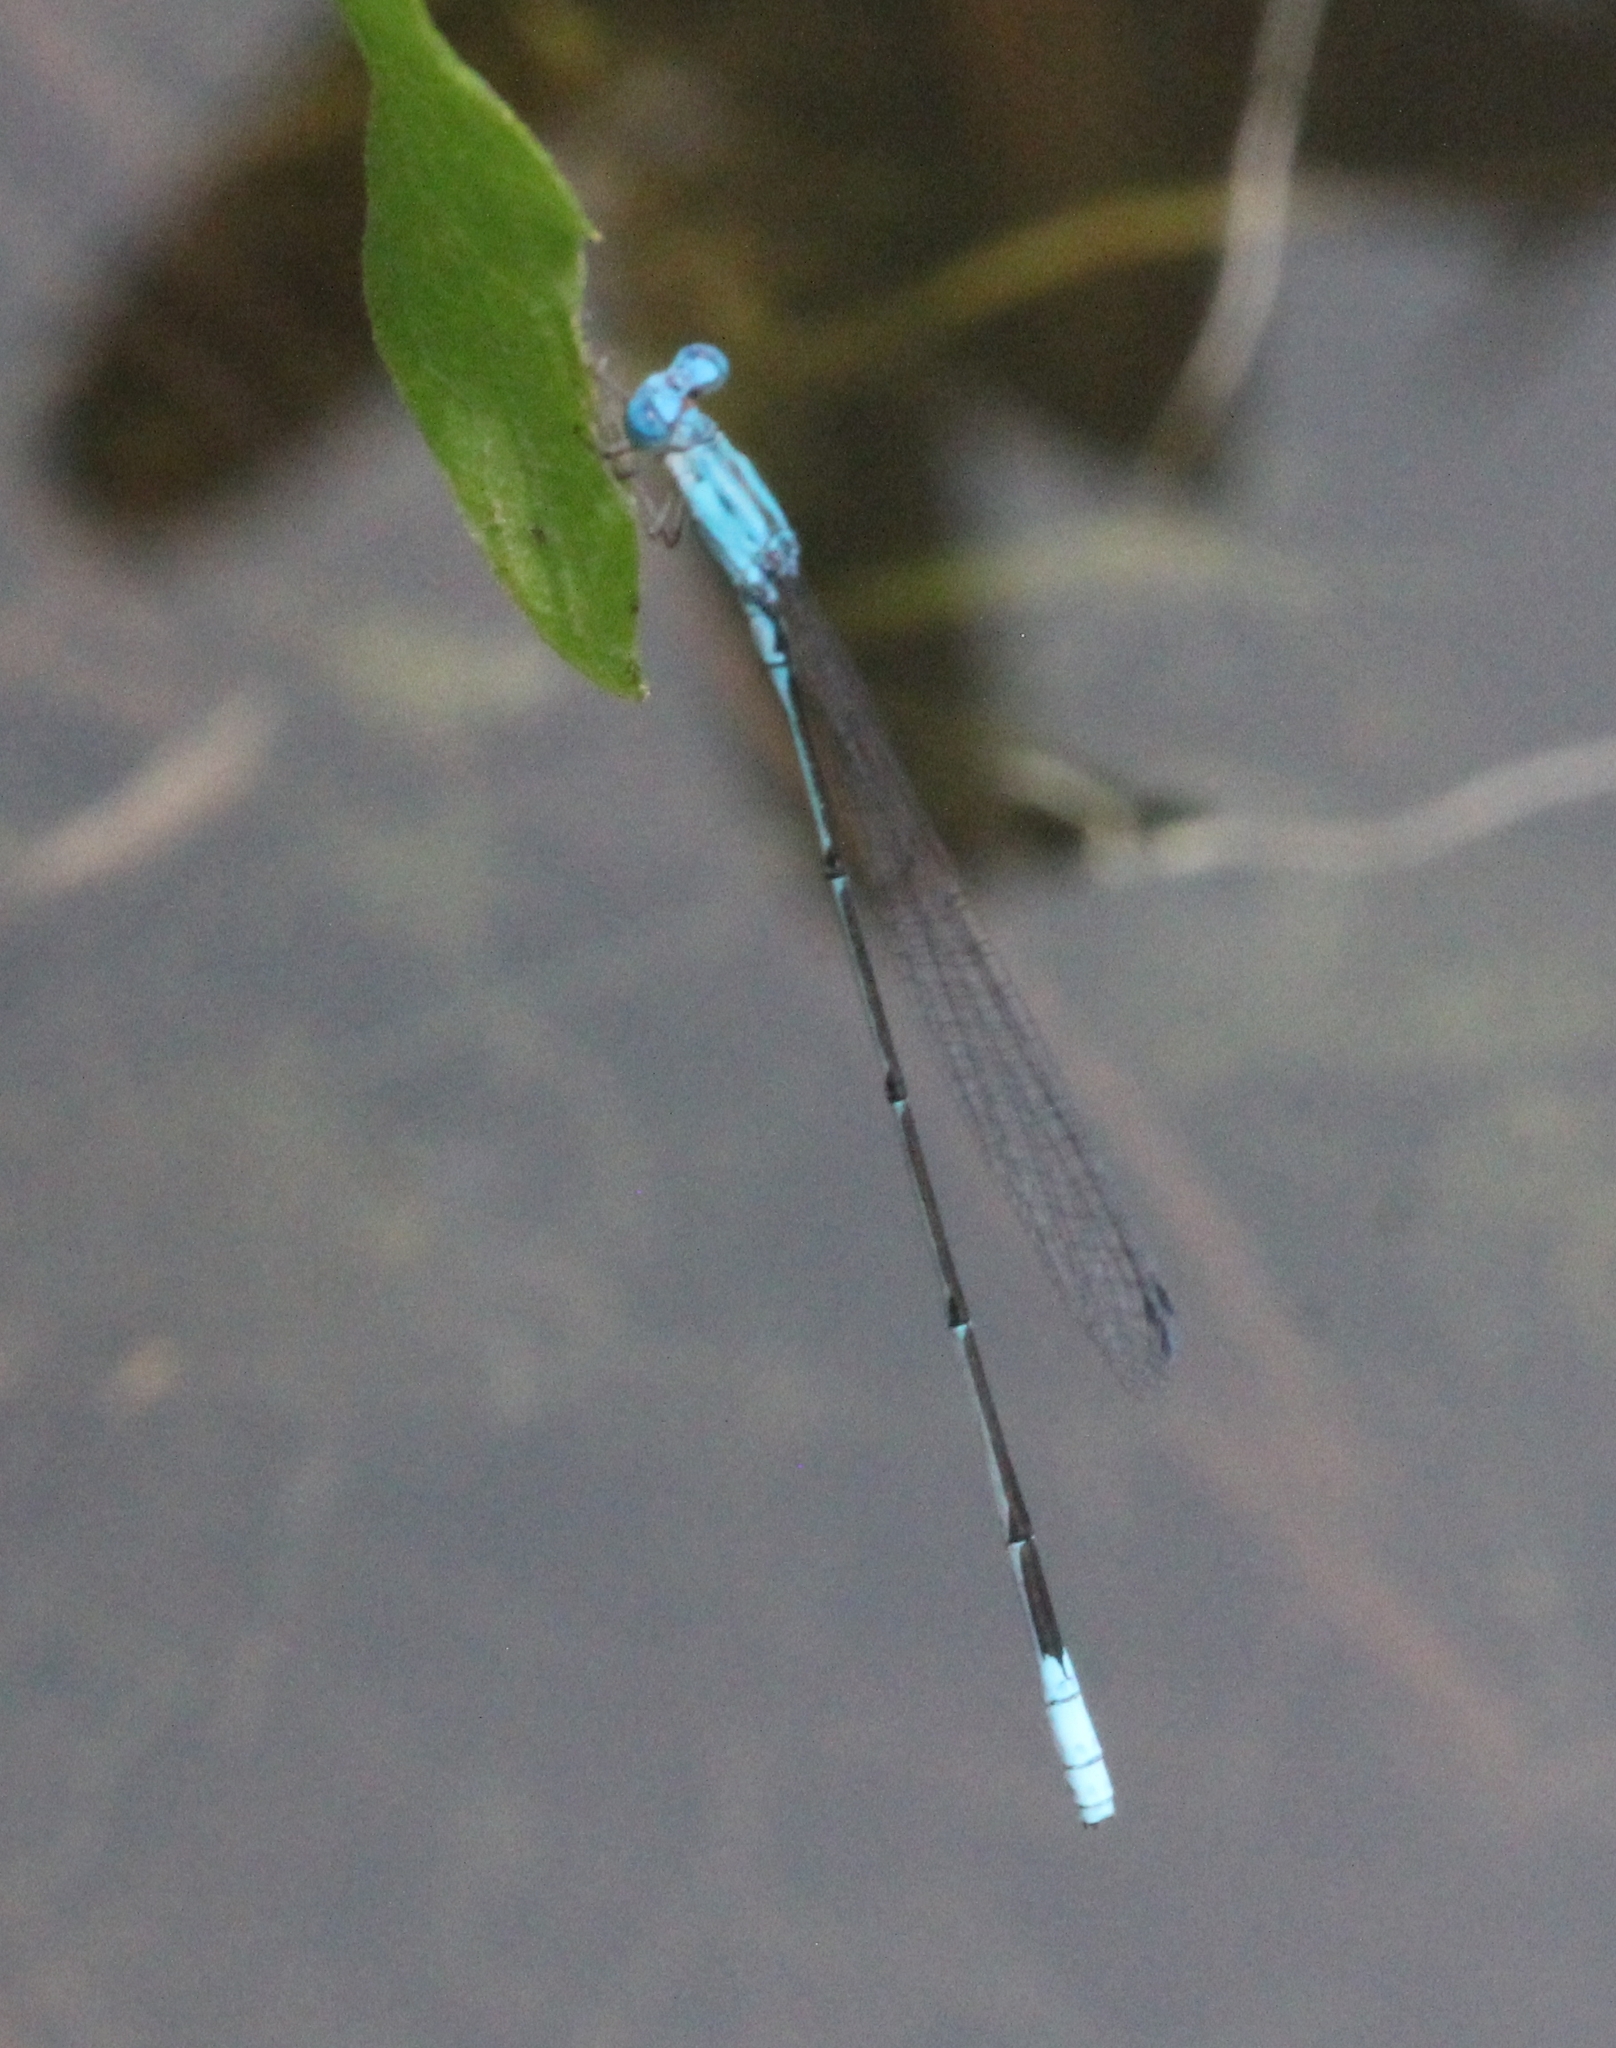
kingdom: Animalia
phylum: Arthropoda
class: Insecta
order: Odonata
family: Coenagrionidae
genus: Enallagma
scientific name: Enallagma daeckii
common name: Attenuated bluet
